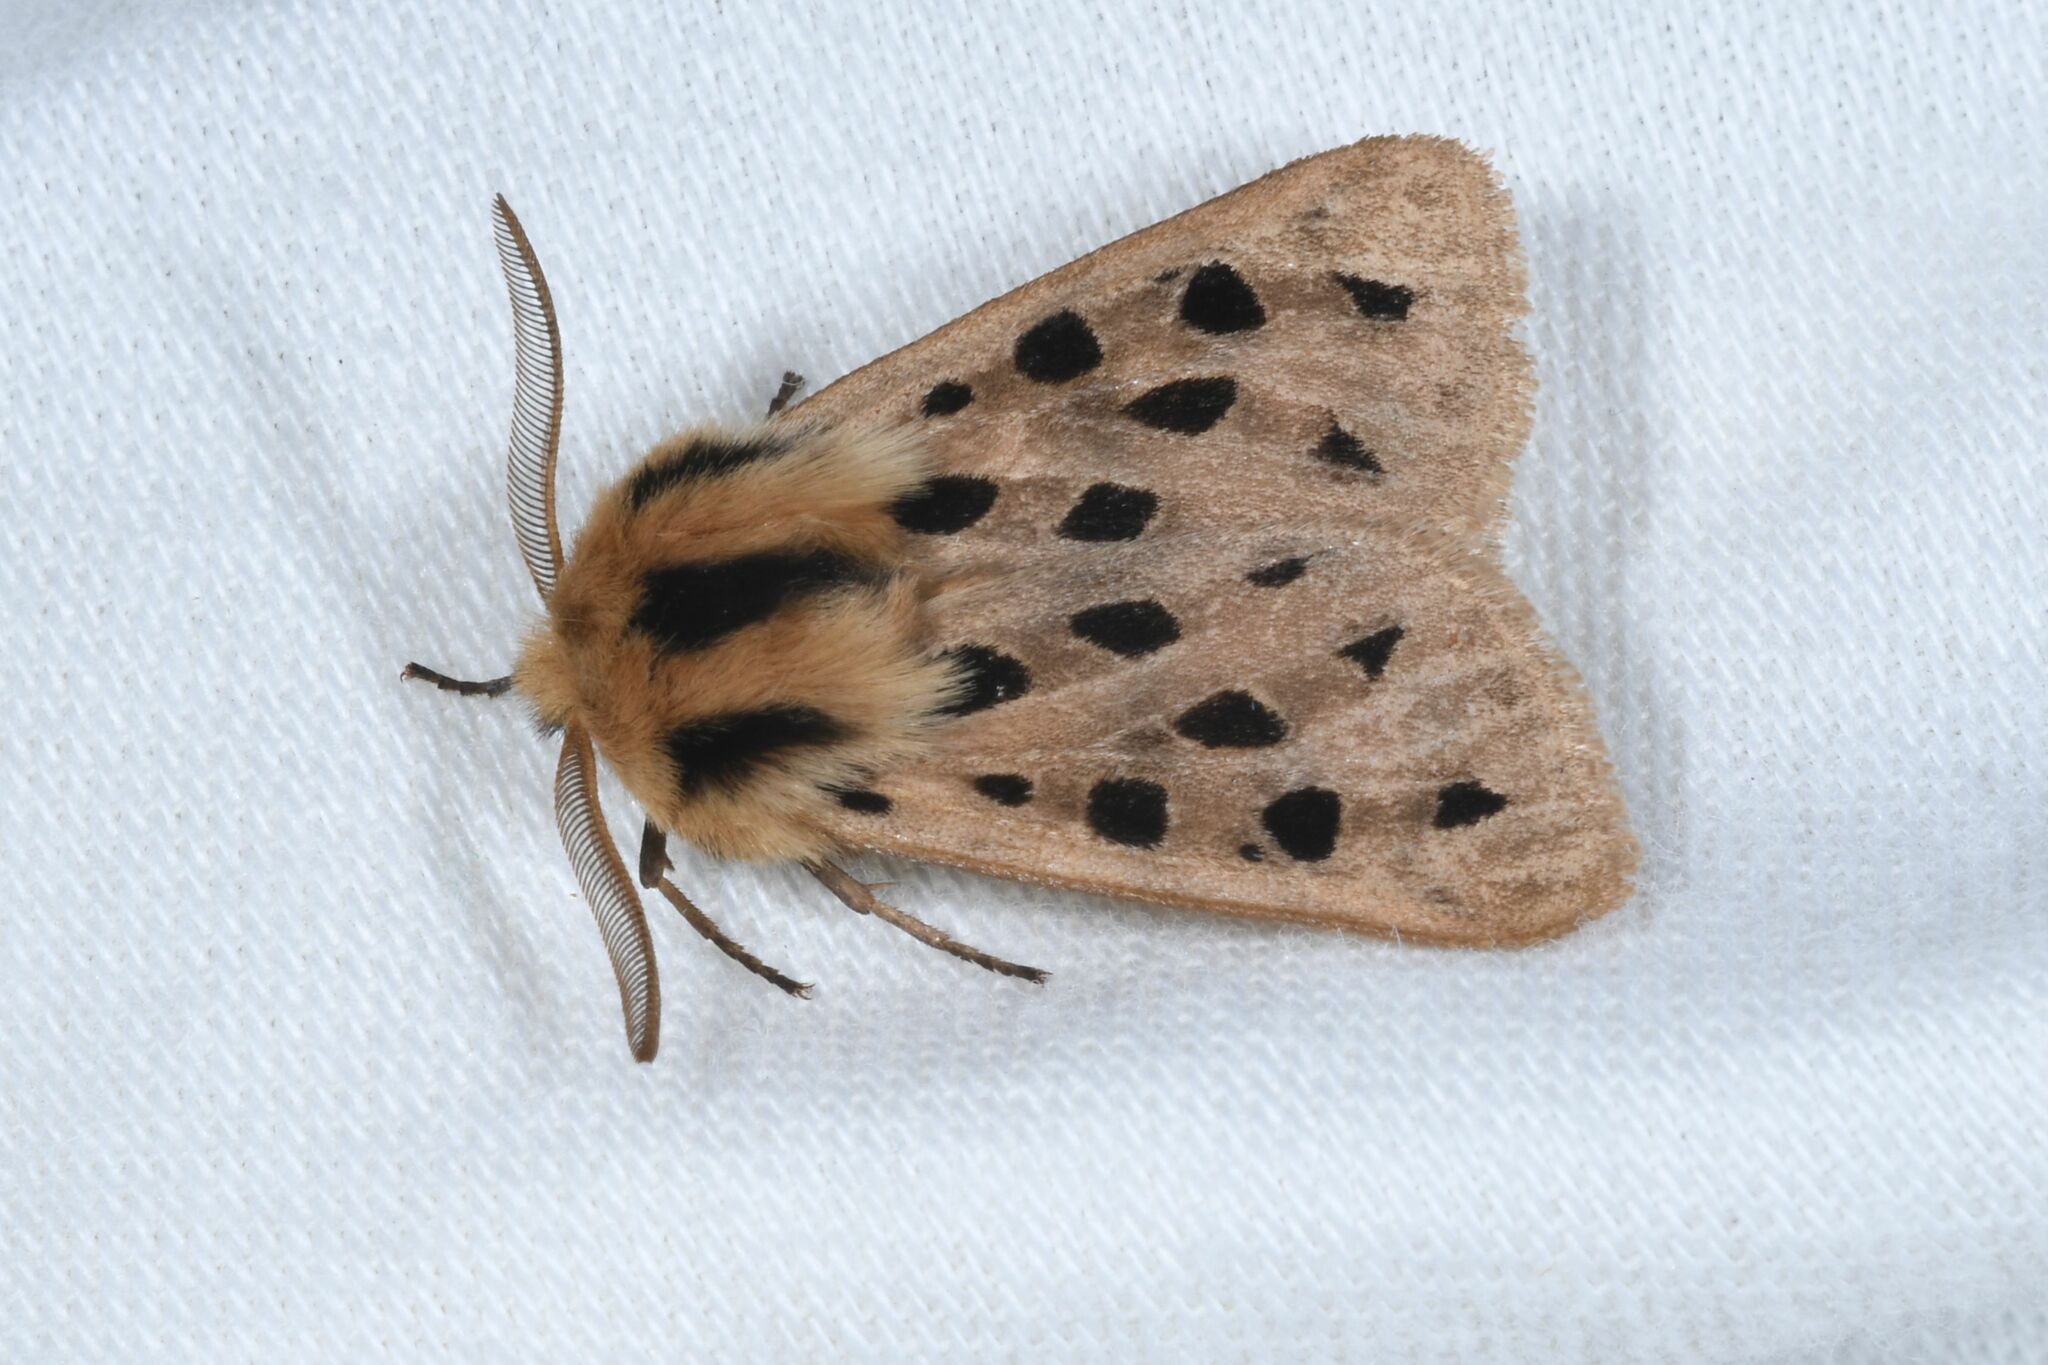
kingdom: Animalia
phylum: Arthropoda
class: Insecta
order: Lepidoptera
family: Erebidae
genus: Chelis
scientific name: Chelis maculosa
